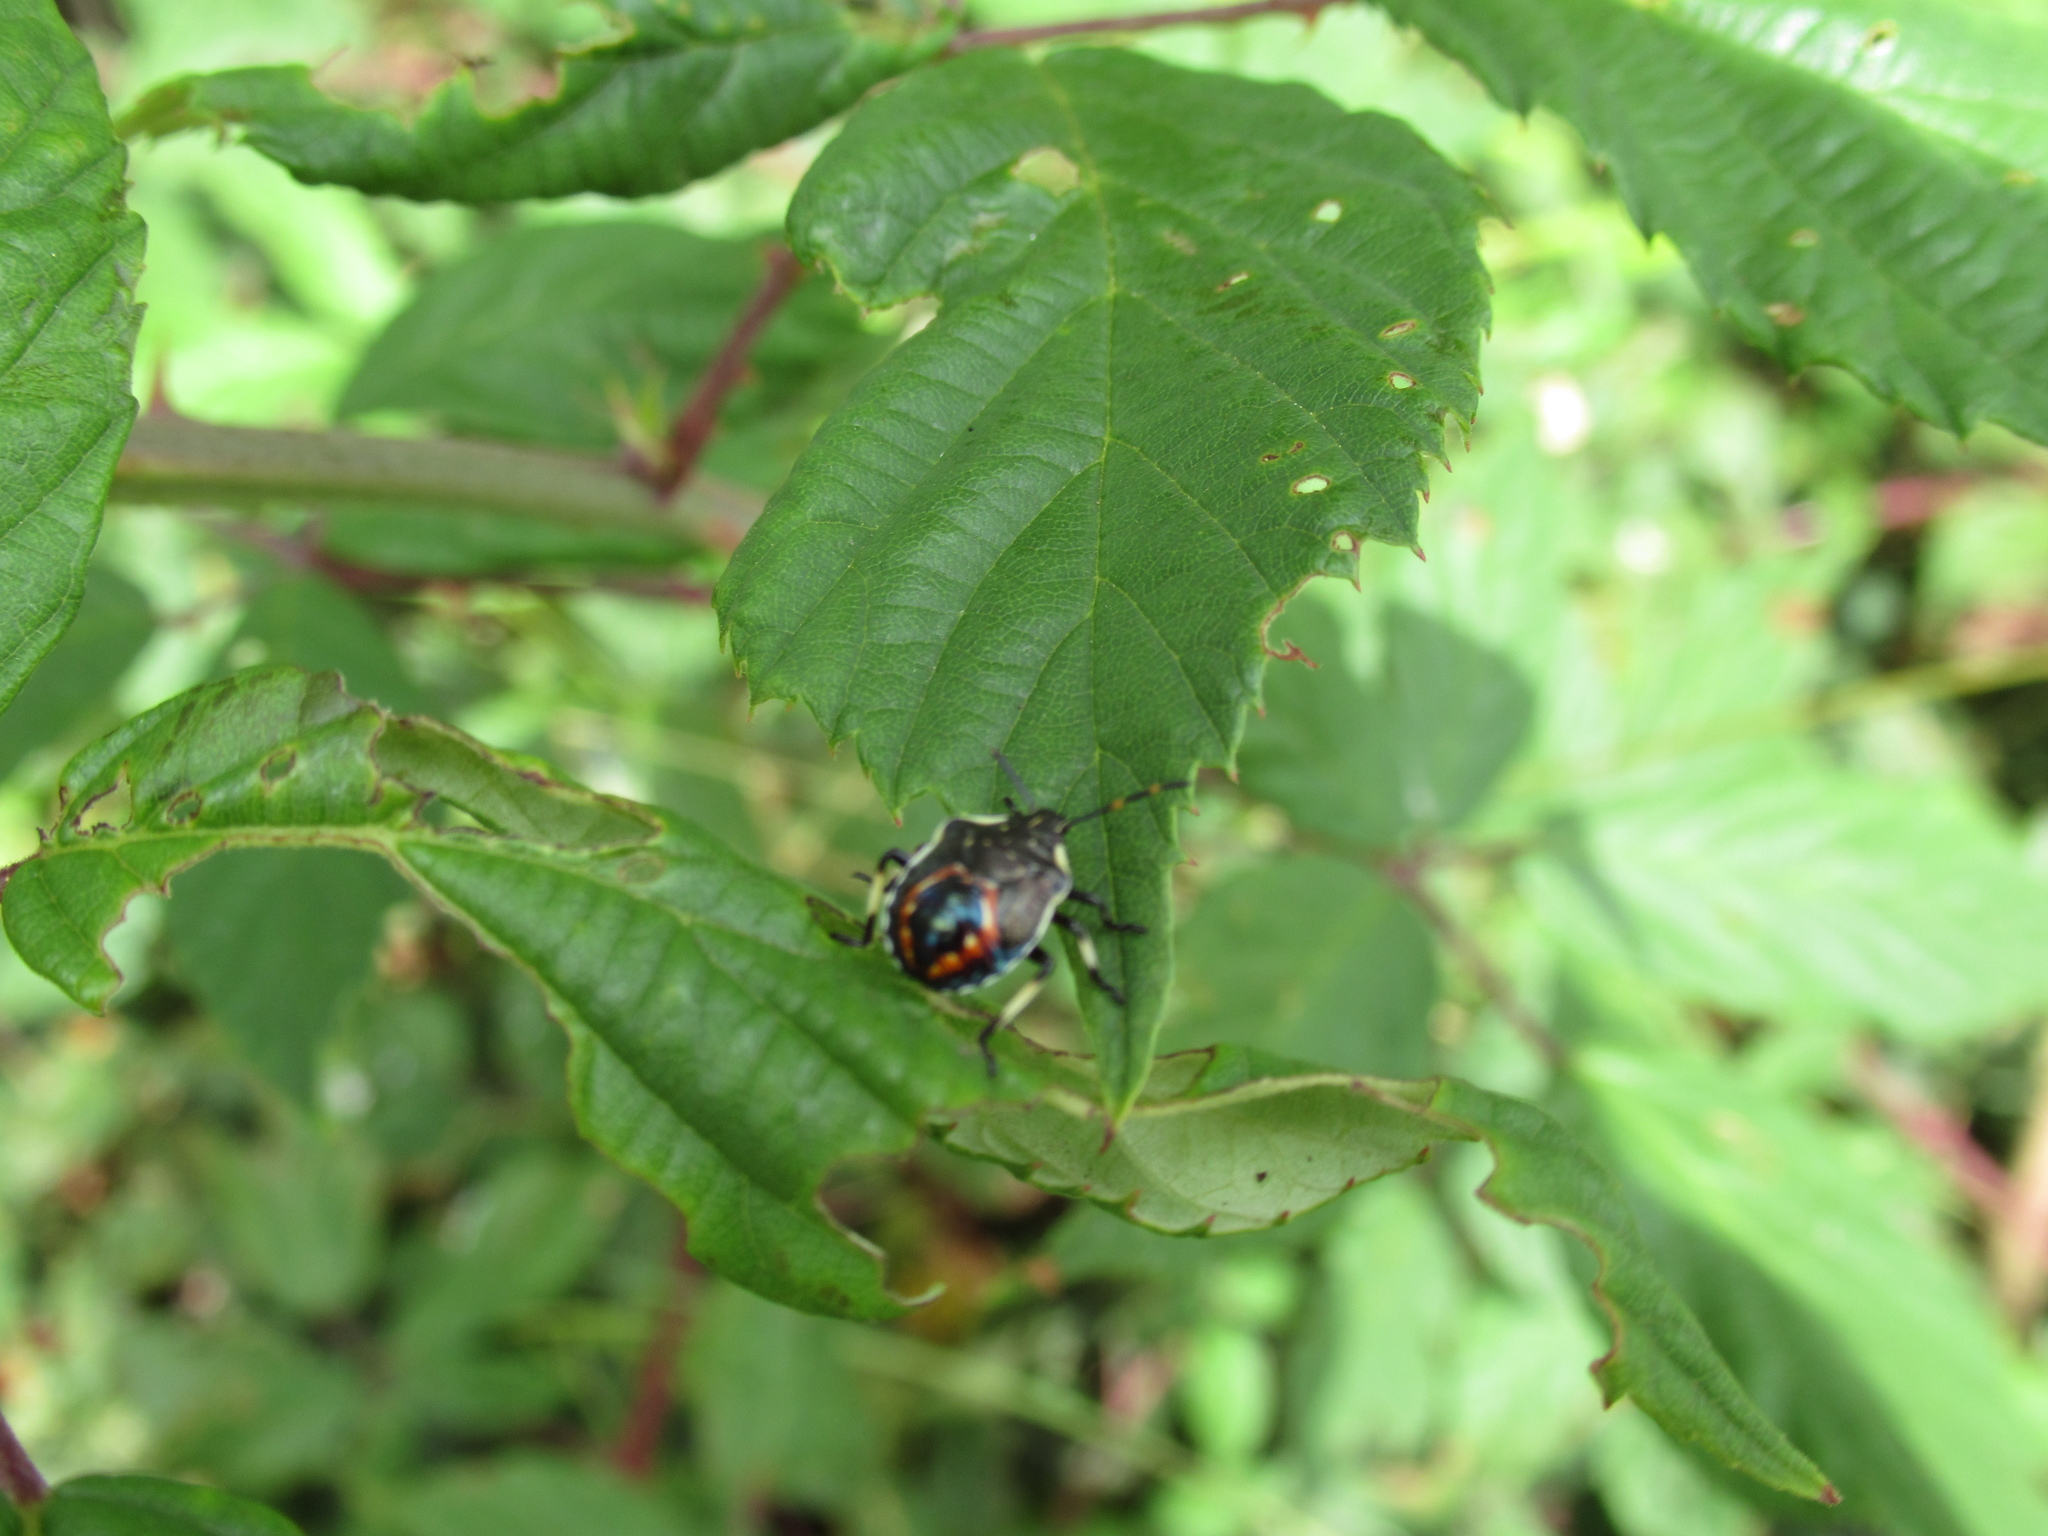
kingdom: Animalia
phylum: Arthropoda
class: Insecta
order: Hemiptera
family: Pentatomidae
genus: Oechalia
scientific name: Oechalia schellenbergii
